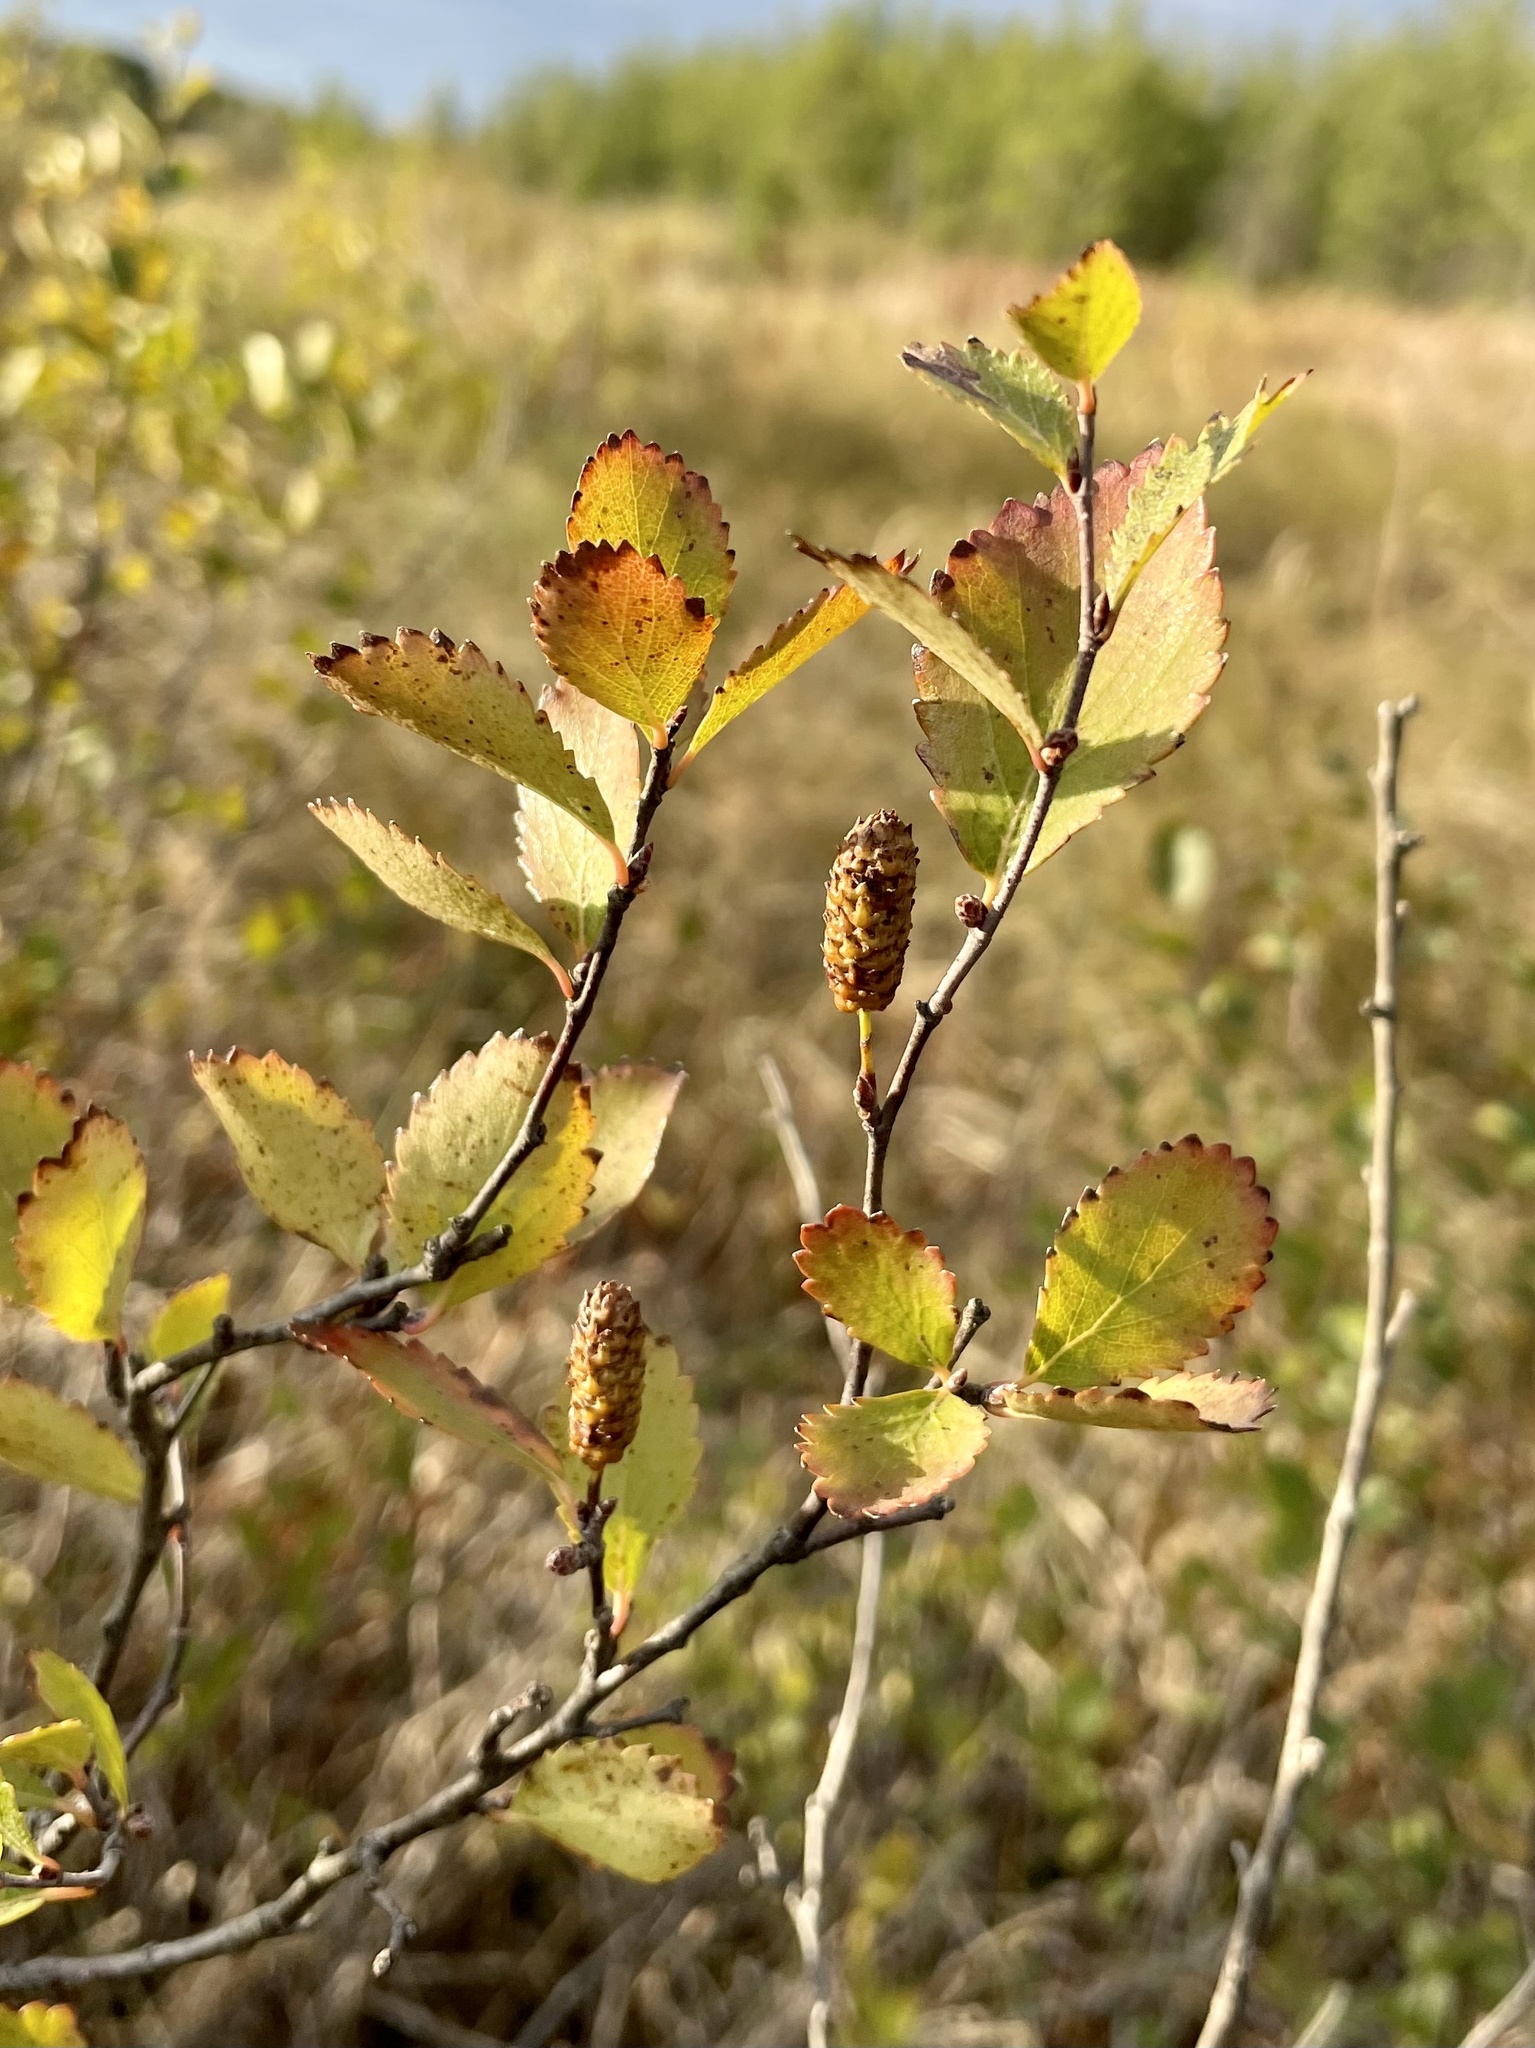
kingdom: Plantae
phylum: Tracheophyta
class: Magnoliopsida
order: Fagales
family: Betulaceae
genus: Betula
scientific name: Betula pumila
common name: Bog birch
